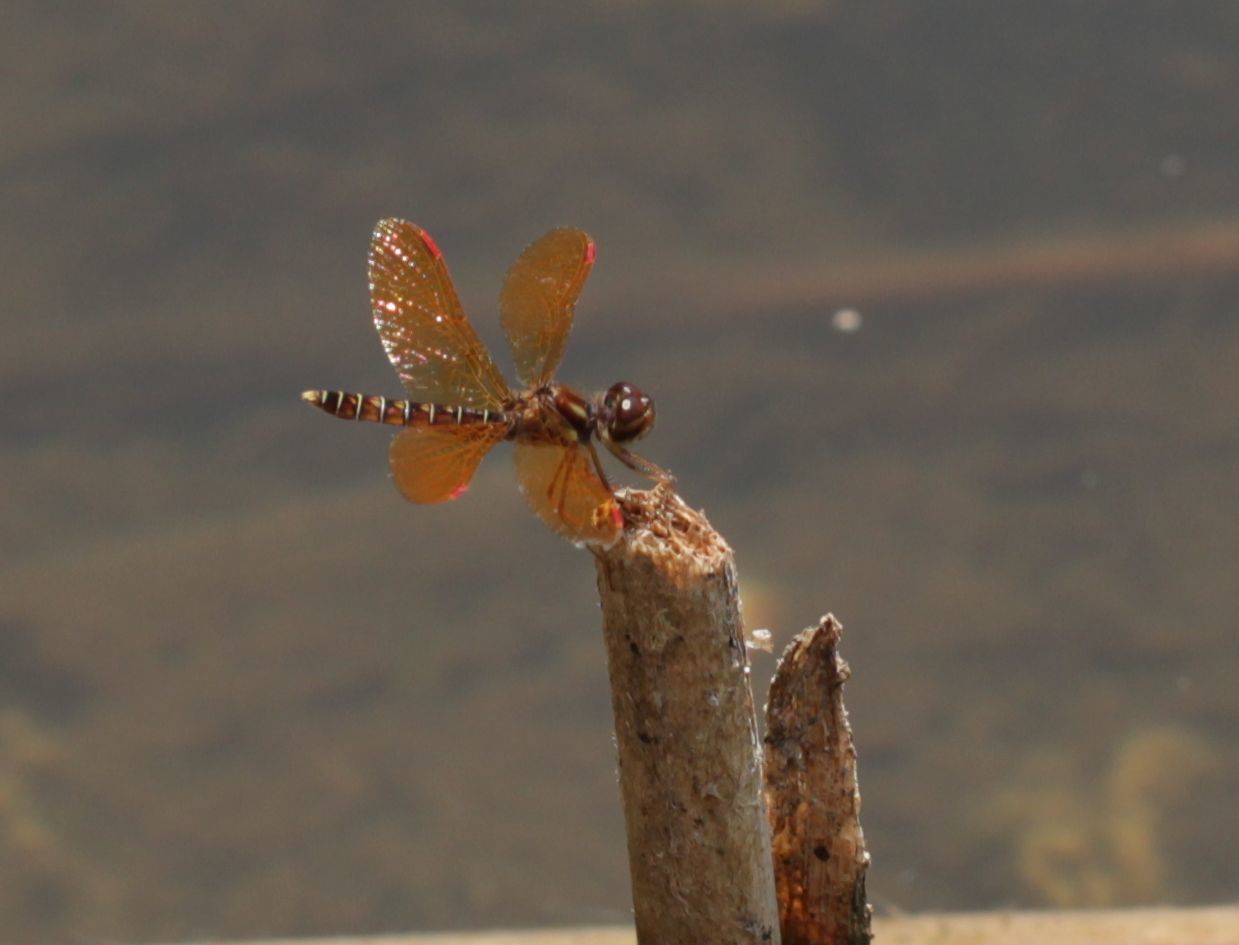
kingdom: Animalia
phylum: Arthropoda
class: Insecta
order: Odonata
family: Libellulidae
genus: Perithemis
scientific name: Perithemis tenera
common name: Eastern amberwing
